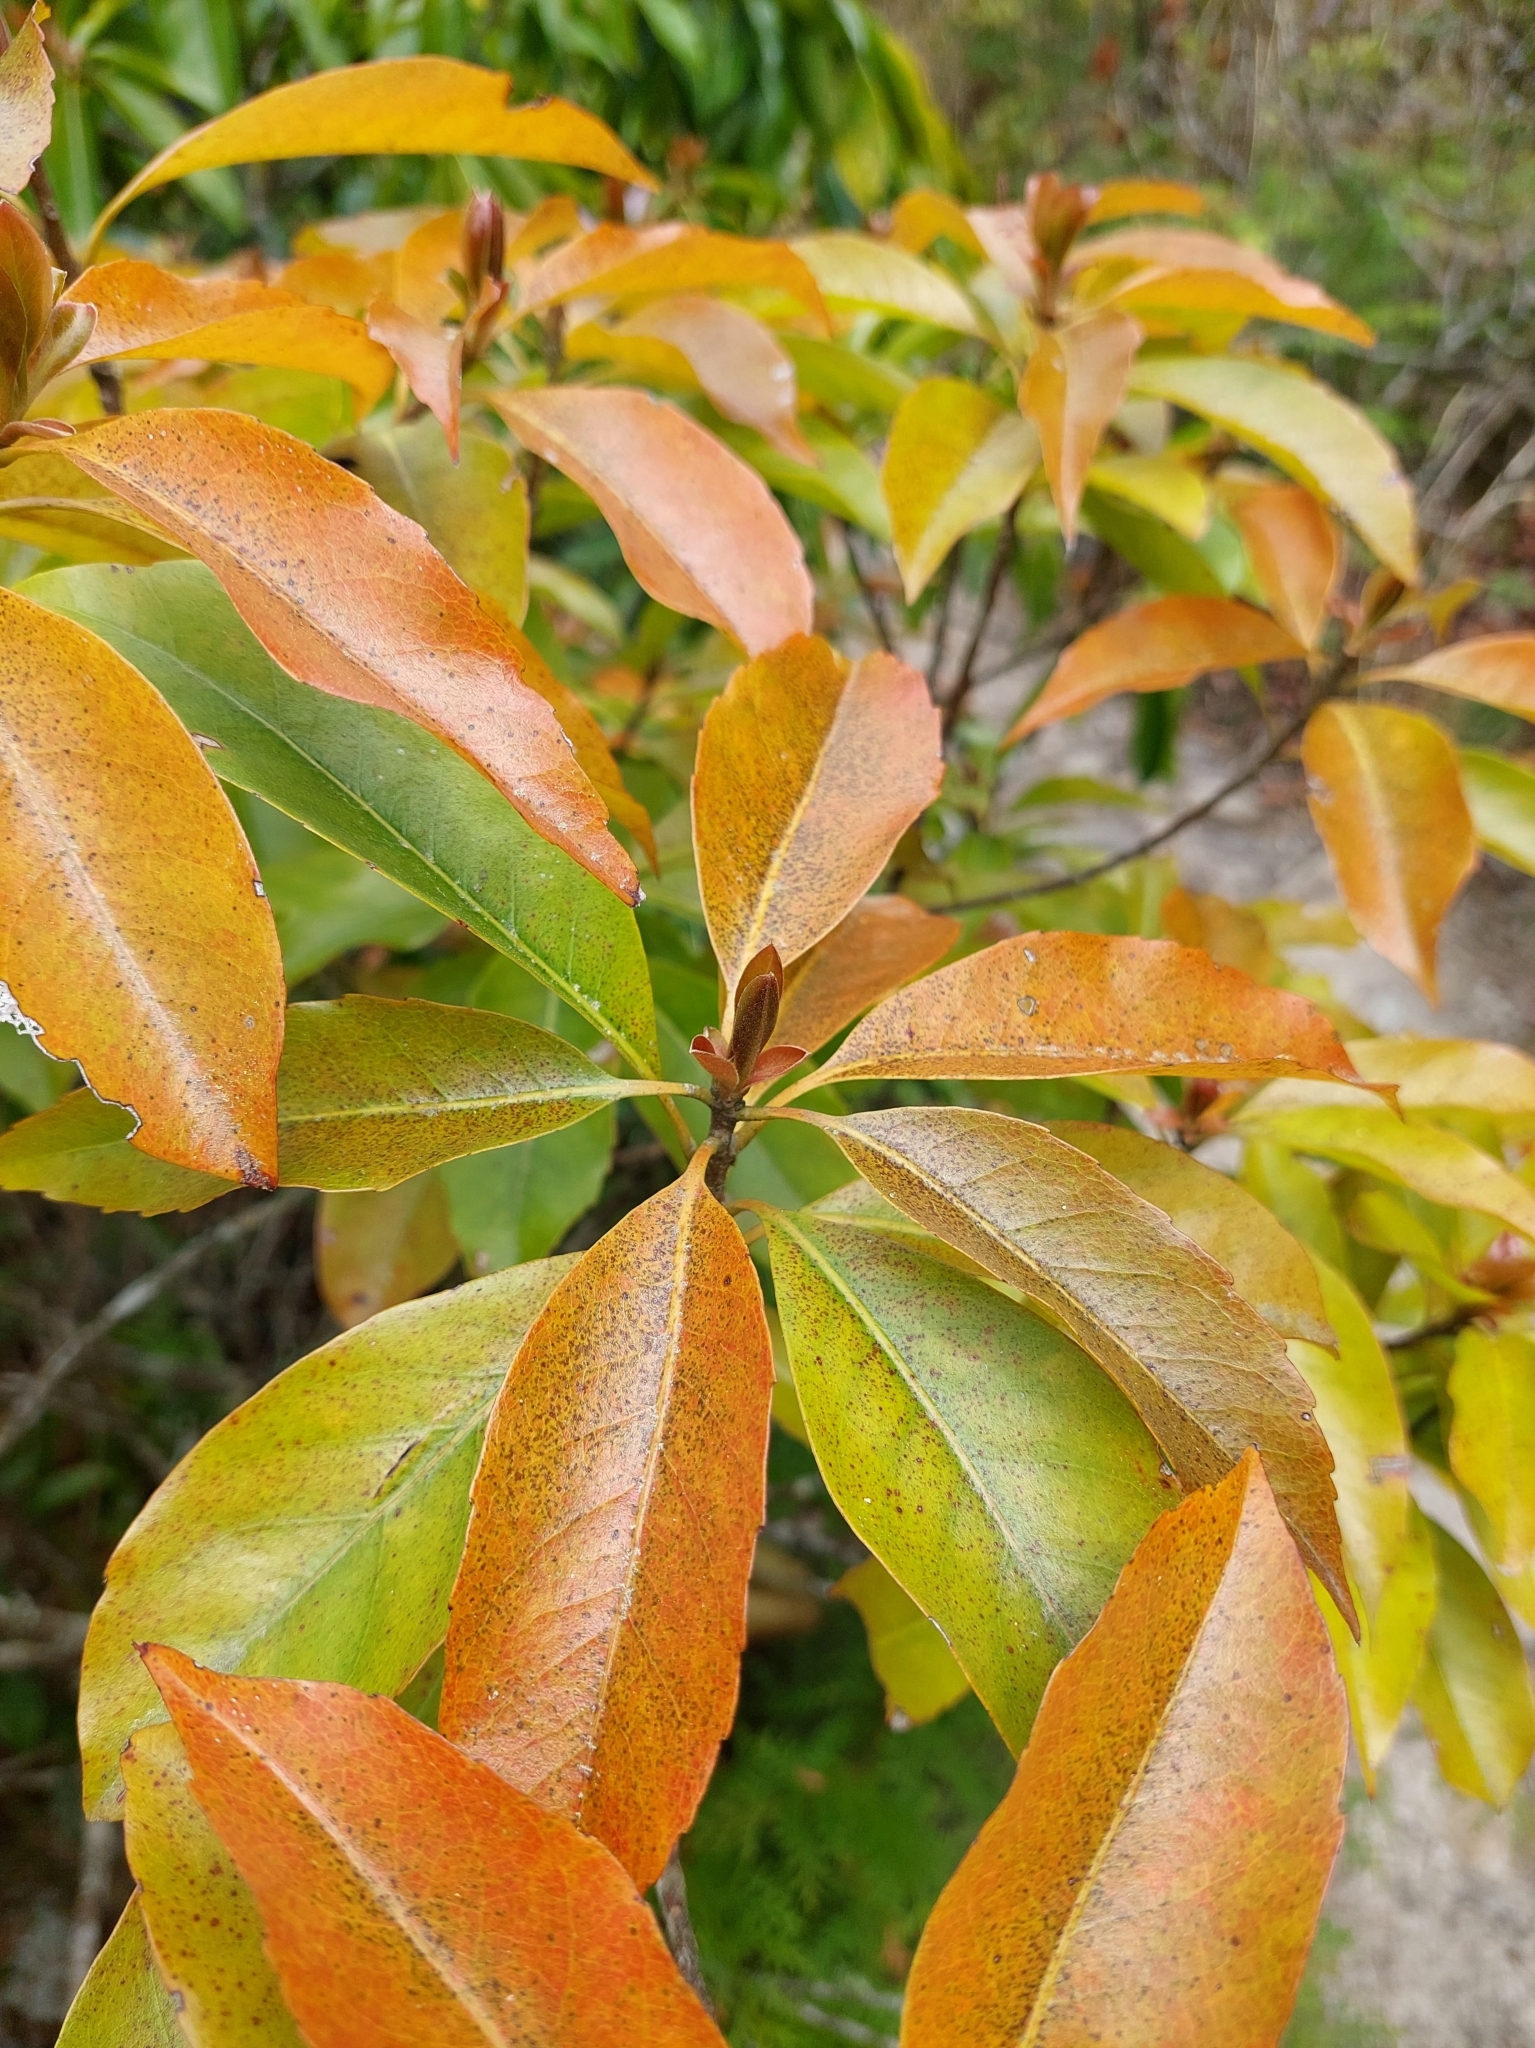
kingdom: Plantae
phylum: Tracheophyta
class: Magnoliopsida
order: Ericales
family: Theaceae
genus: Schima
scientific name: Schima superba
